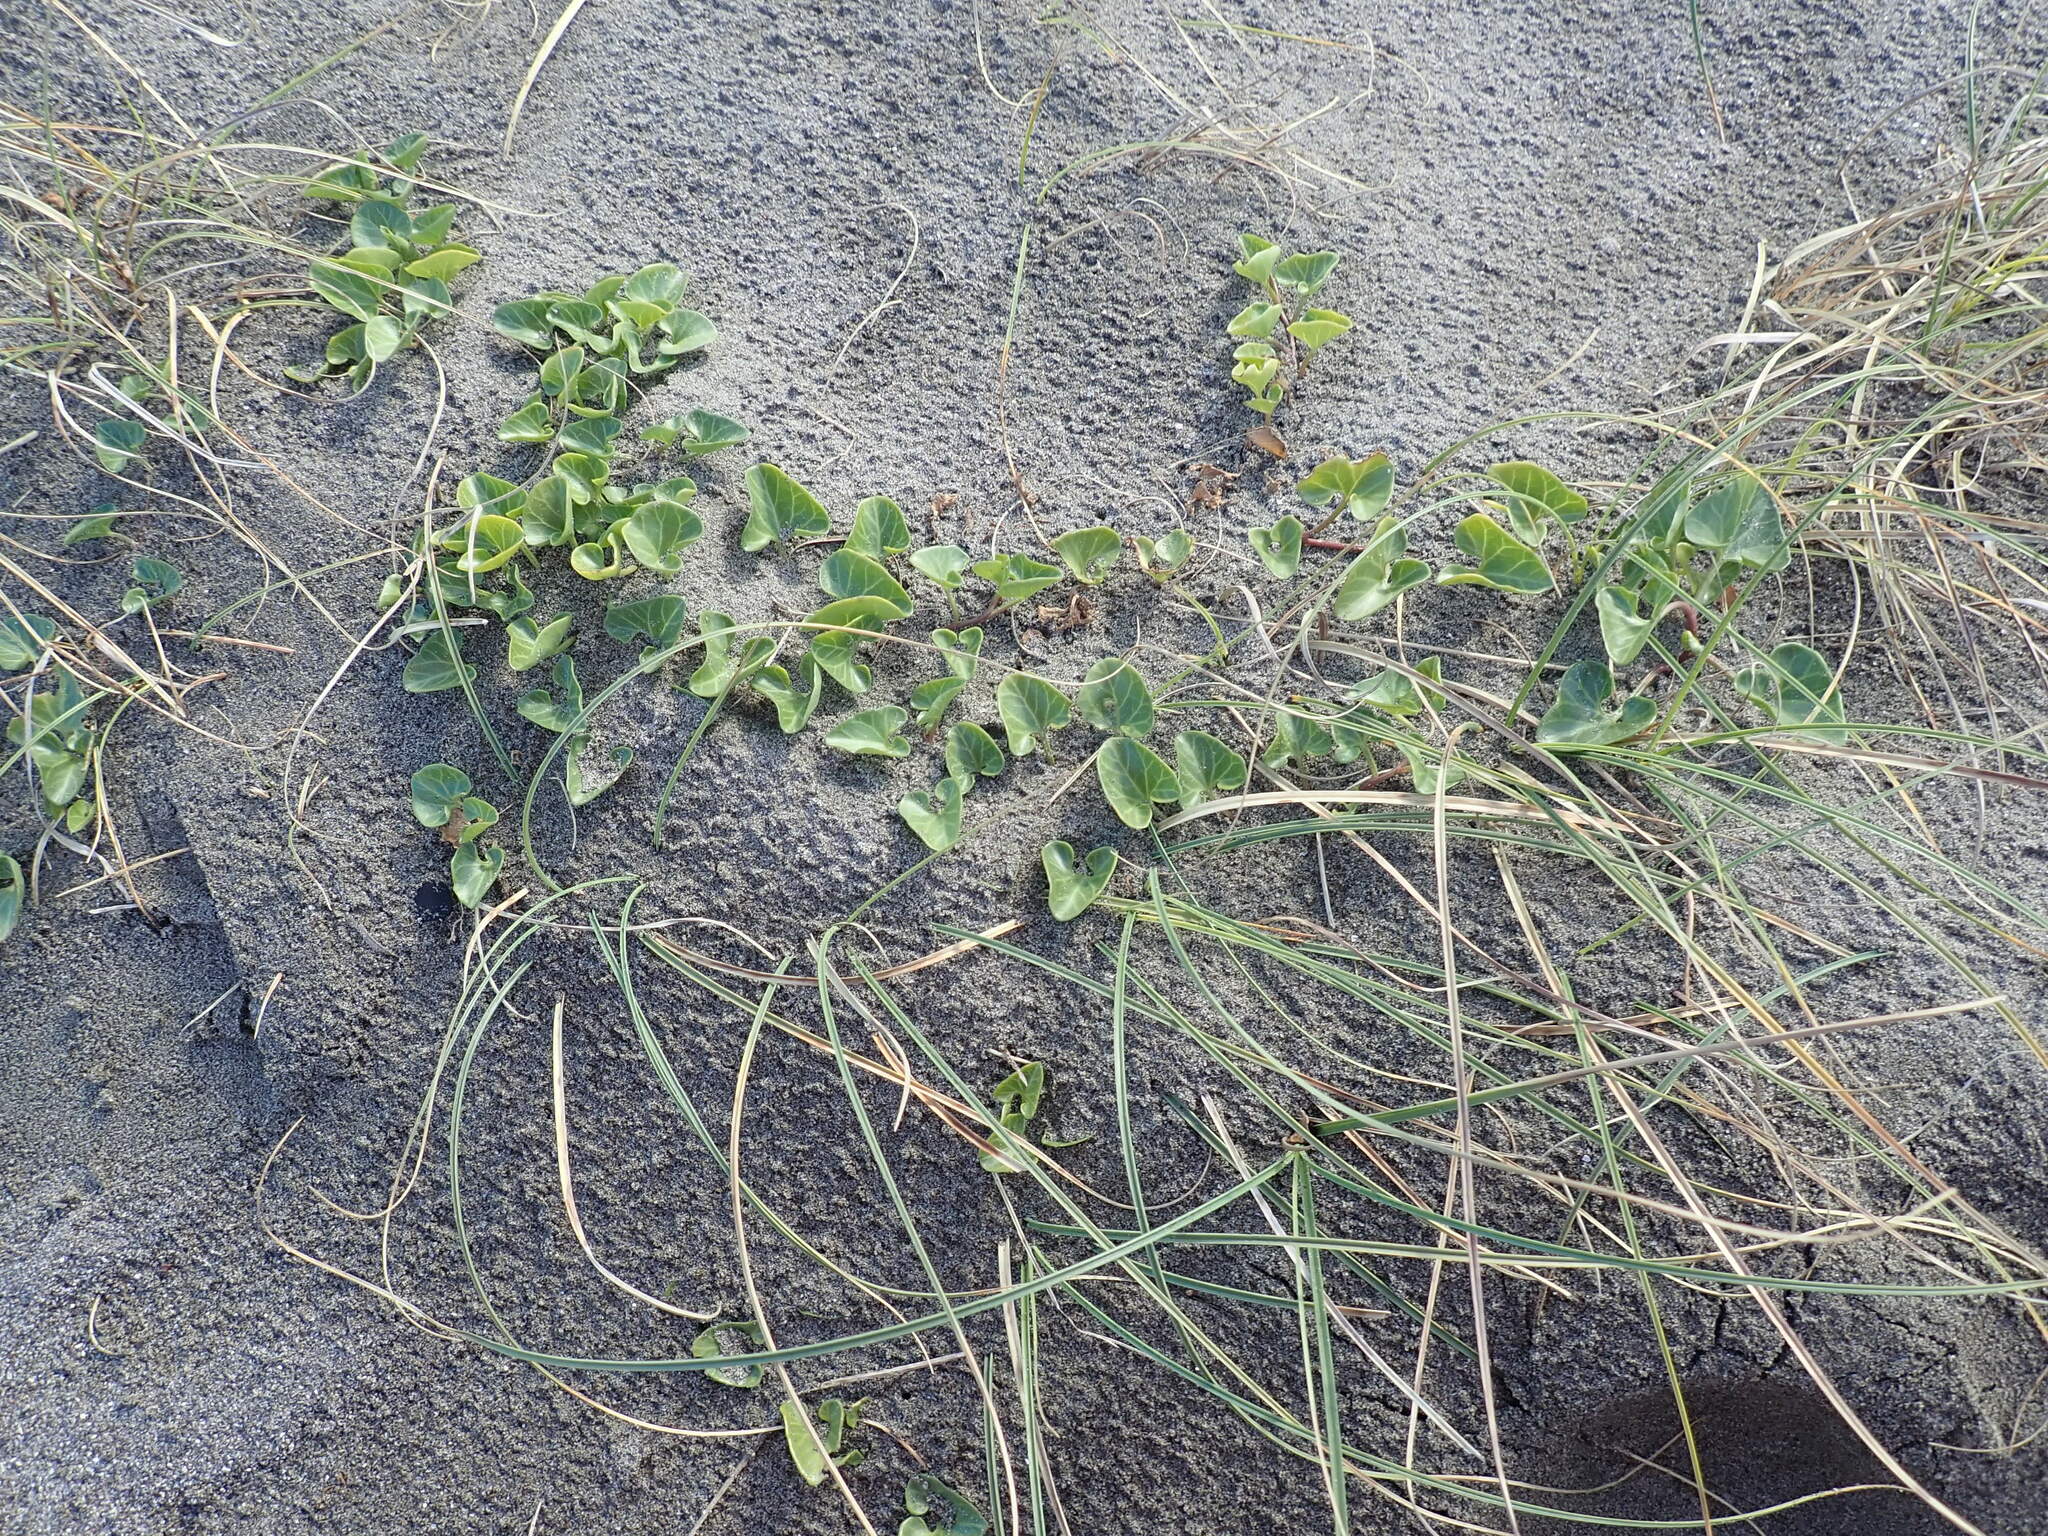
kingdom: Plantae
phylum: Tracheophyta
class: Magnoliopsida
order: Solanales
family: Convolvulaceae
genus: Calystegia
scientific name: Calystegia soldanella
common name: Sea bindweed
